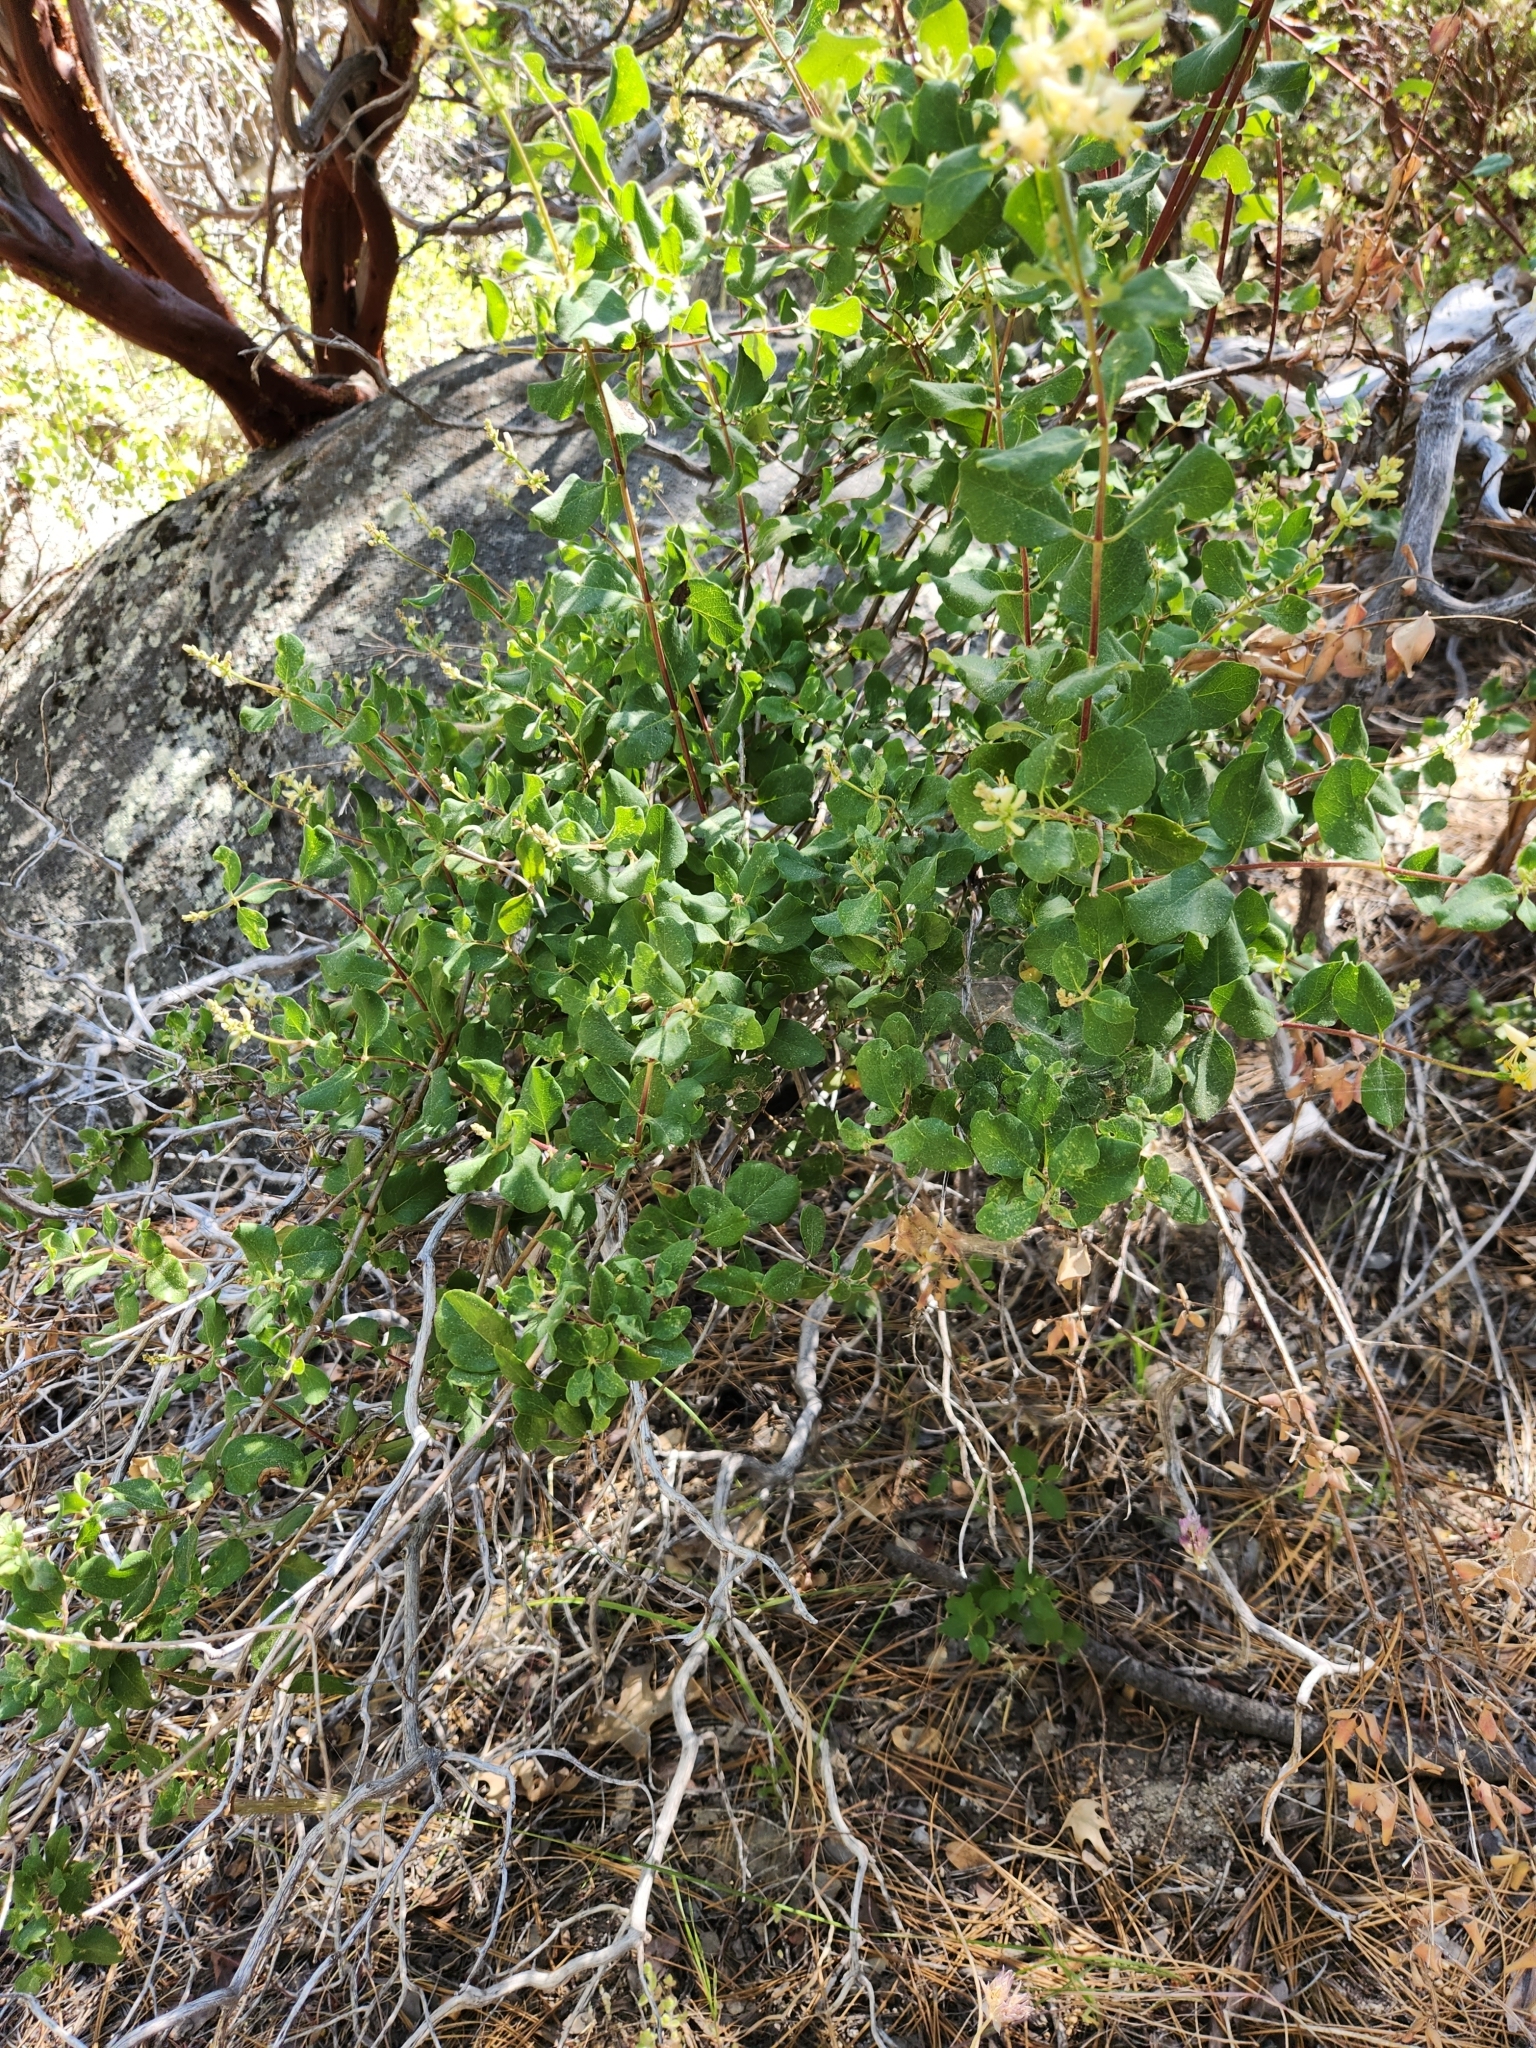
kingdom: Plantae
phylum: Tracheophyta
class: Magnoliopsida
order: Dipsacales
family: Caprifoliaceae
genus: Lonicera
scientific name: Lonicera subspicata
